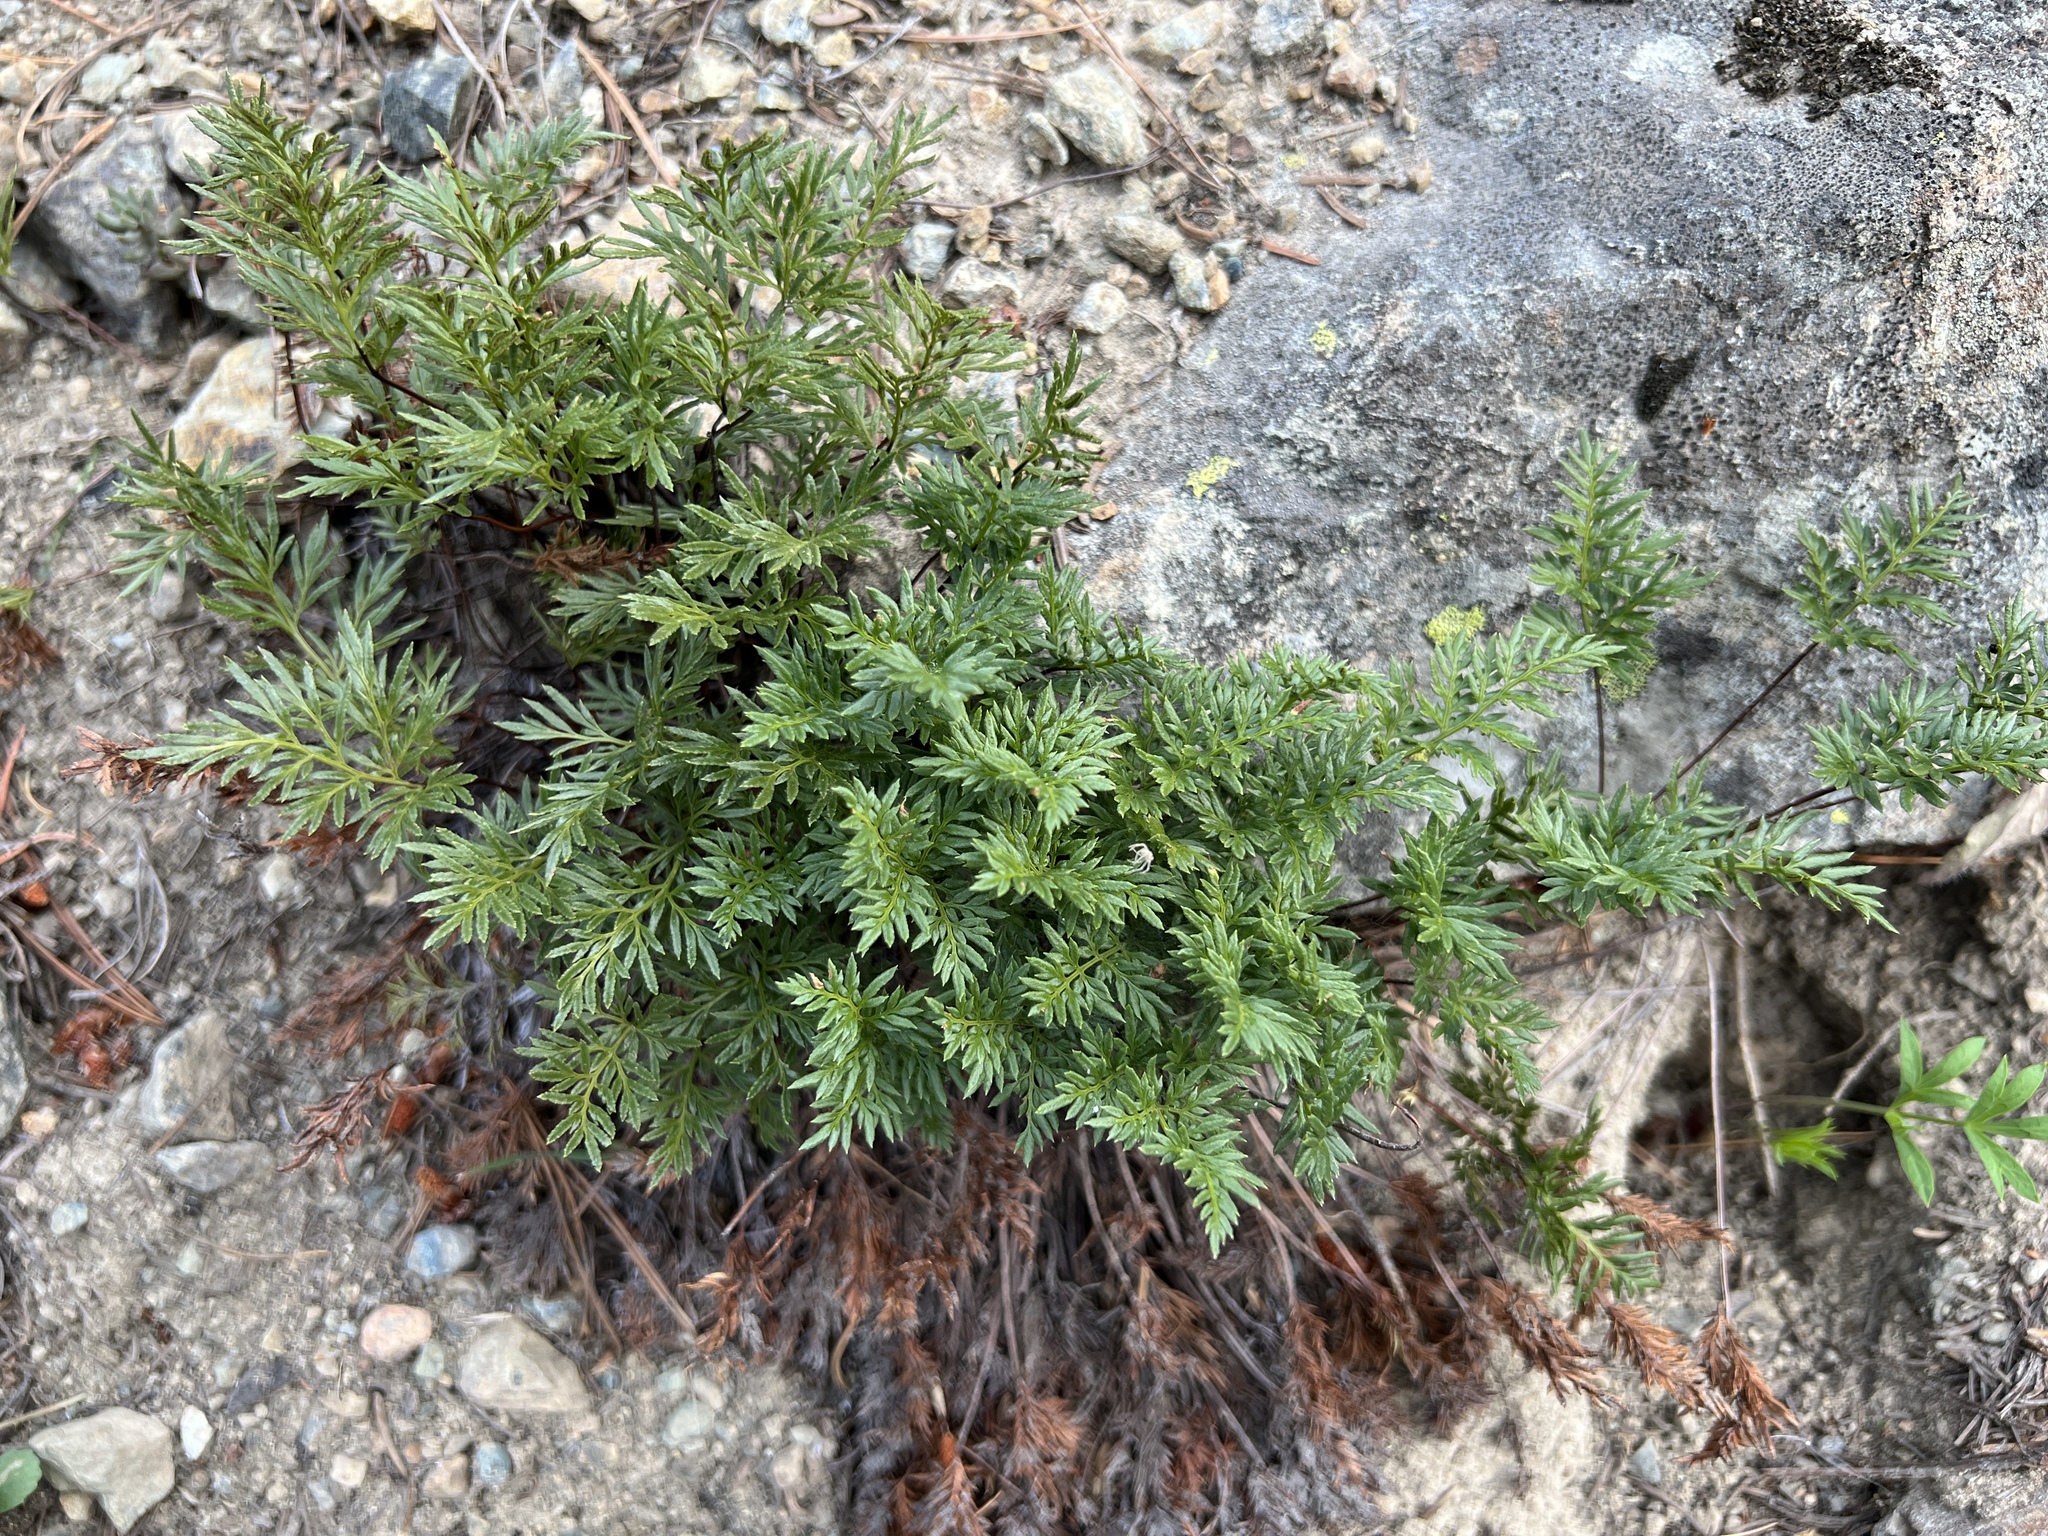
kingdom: Plantae
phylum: Tracheophyta
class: Polypodiopsida
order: Polypodiales
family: Pteridaceae
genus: Aspidotis
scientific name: Aspidotis densa
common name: Indian's dream
